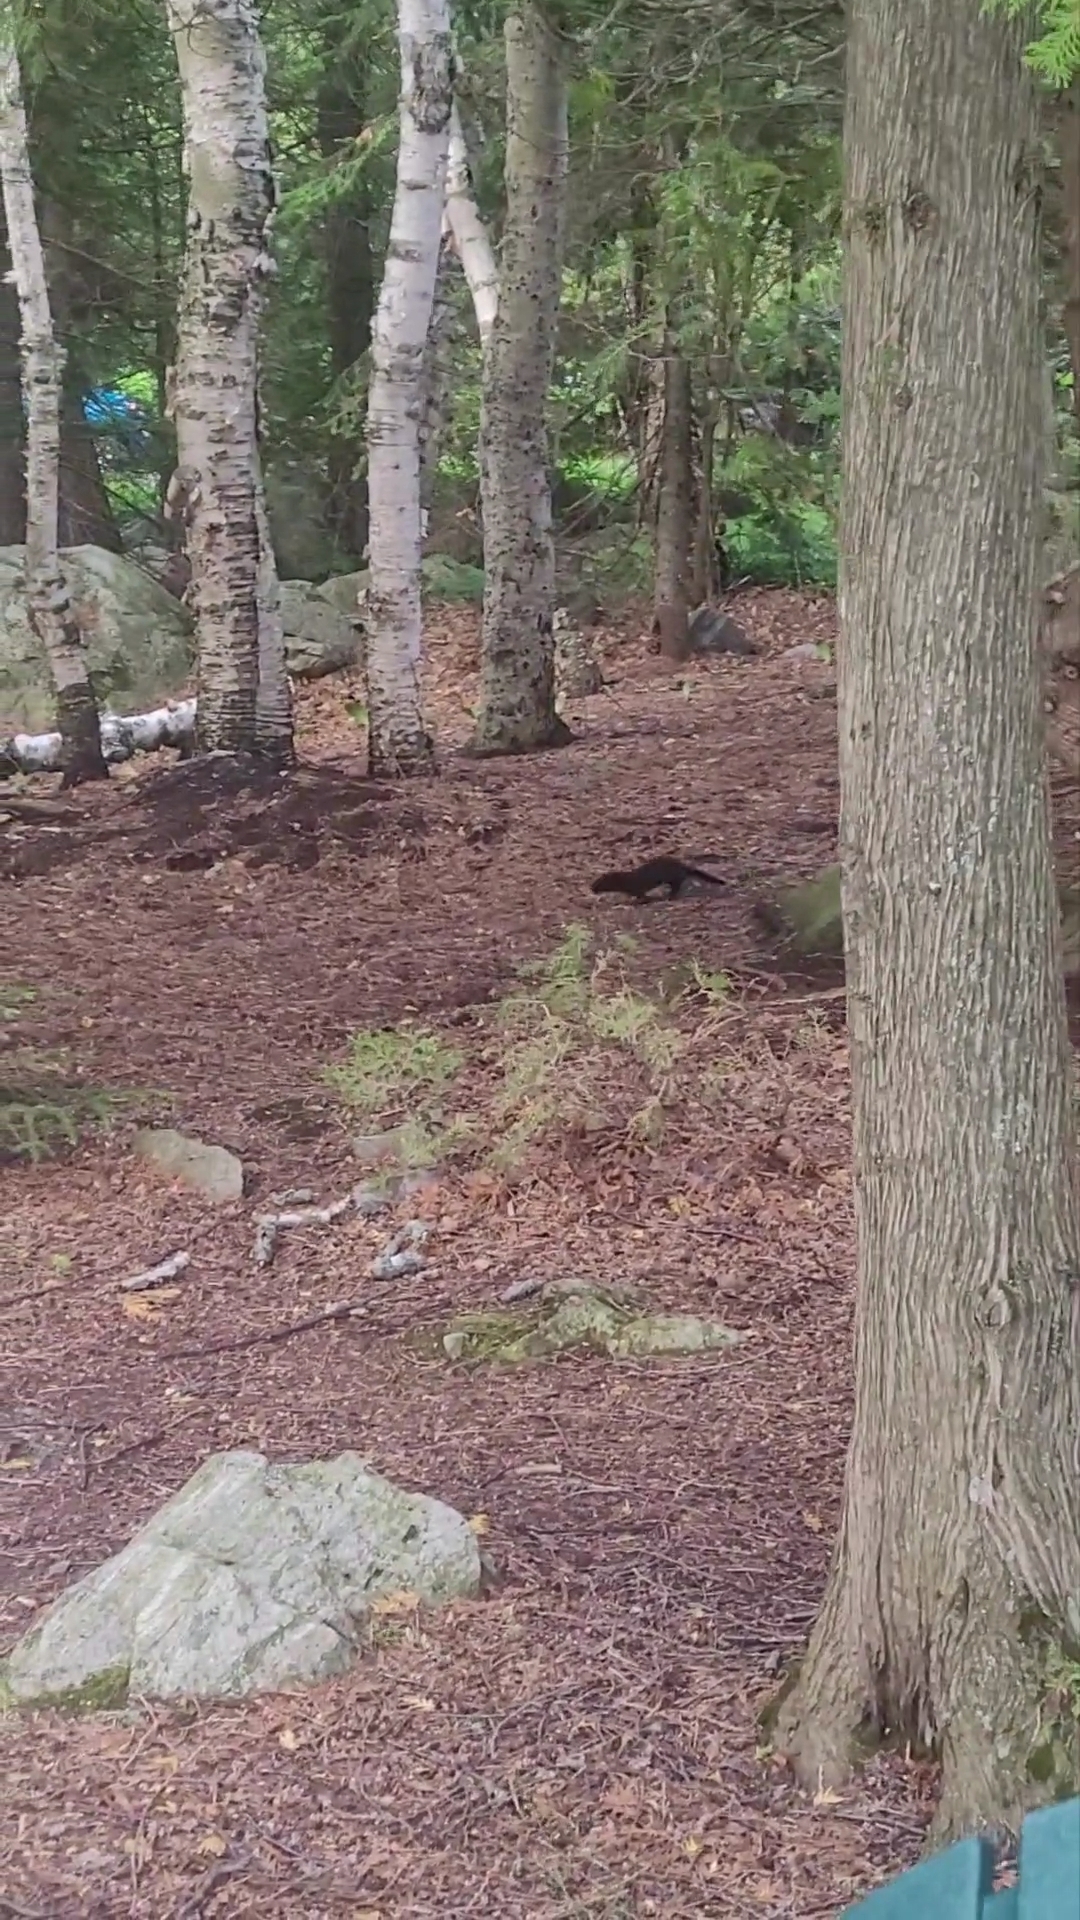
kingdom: Animalia
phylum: Chordata
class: Mammalia
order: Carnivora
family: Mustelidae
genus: Mustela
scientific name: Mustela
